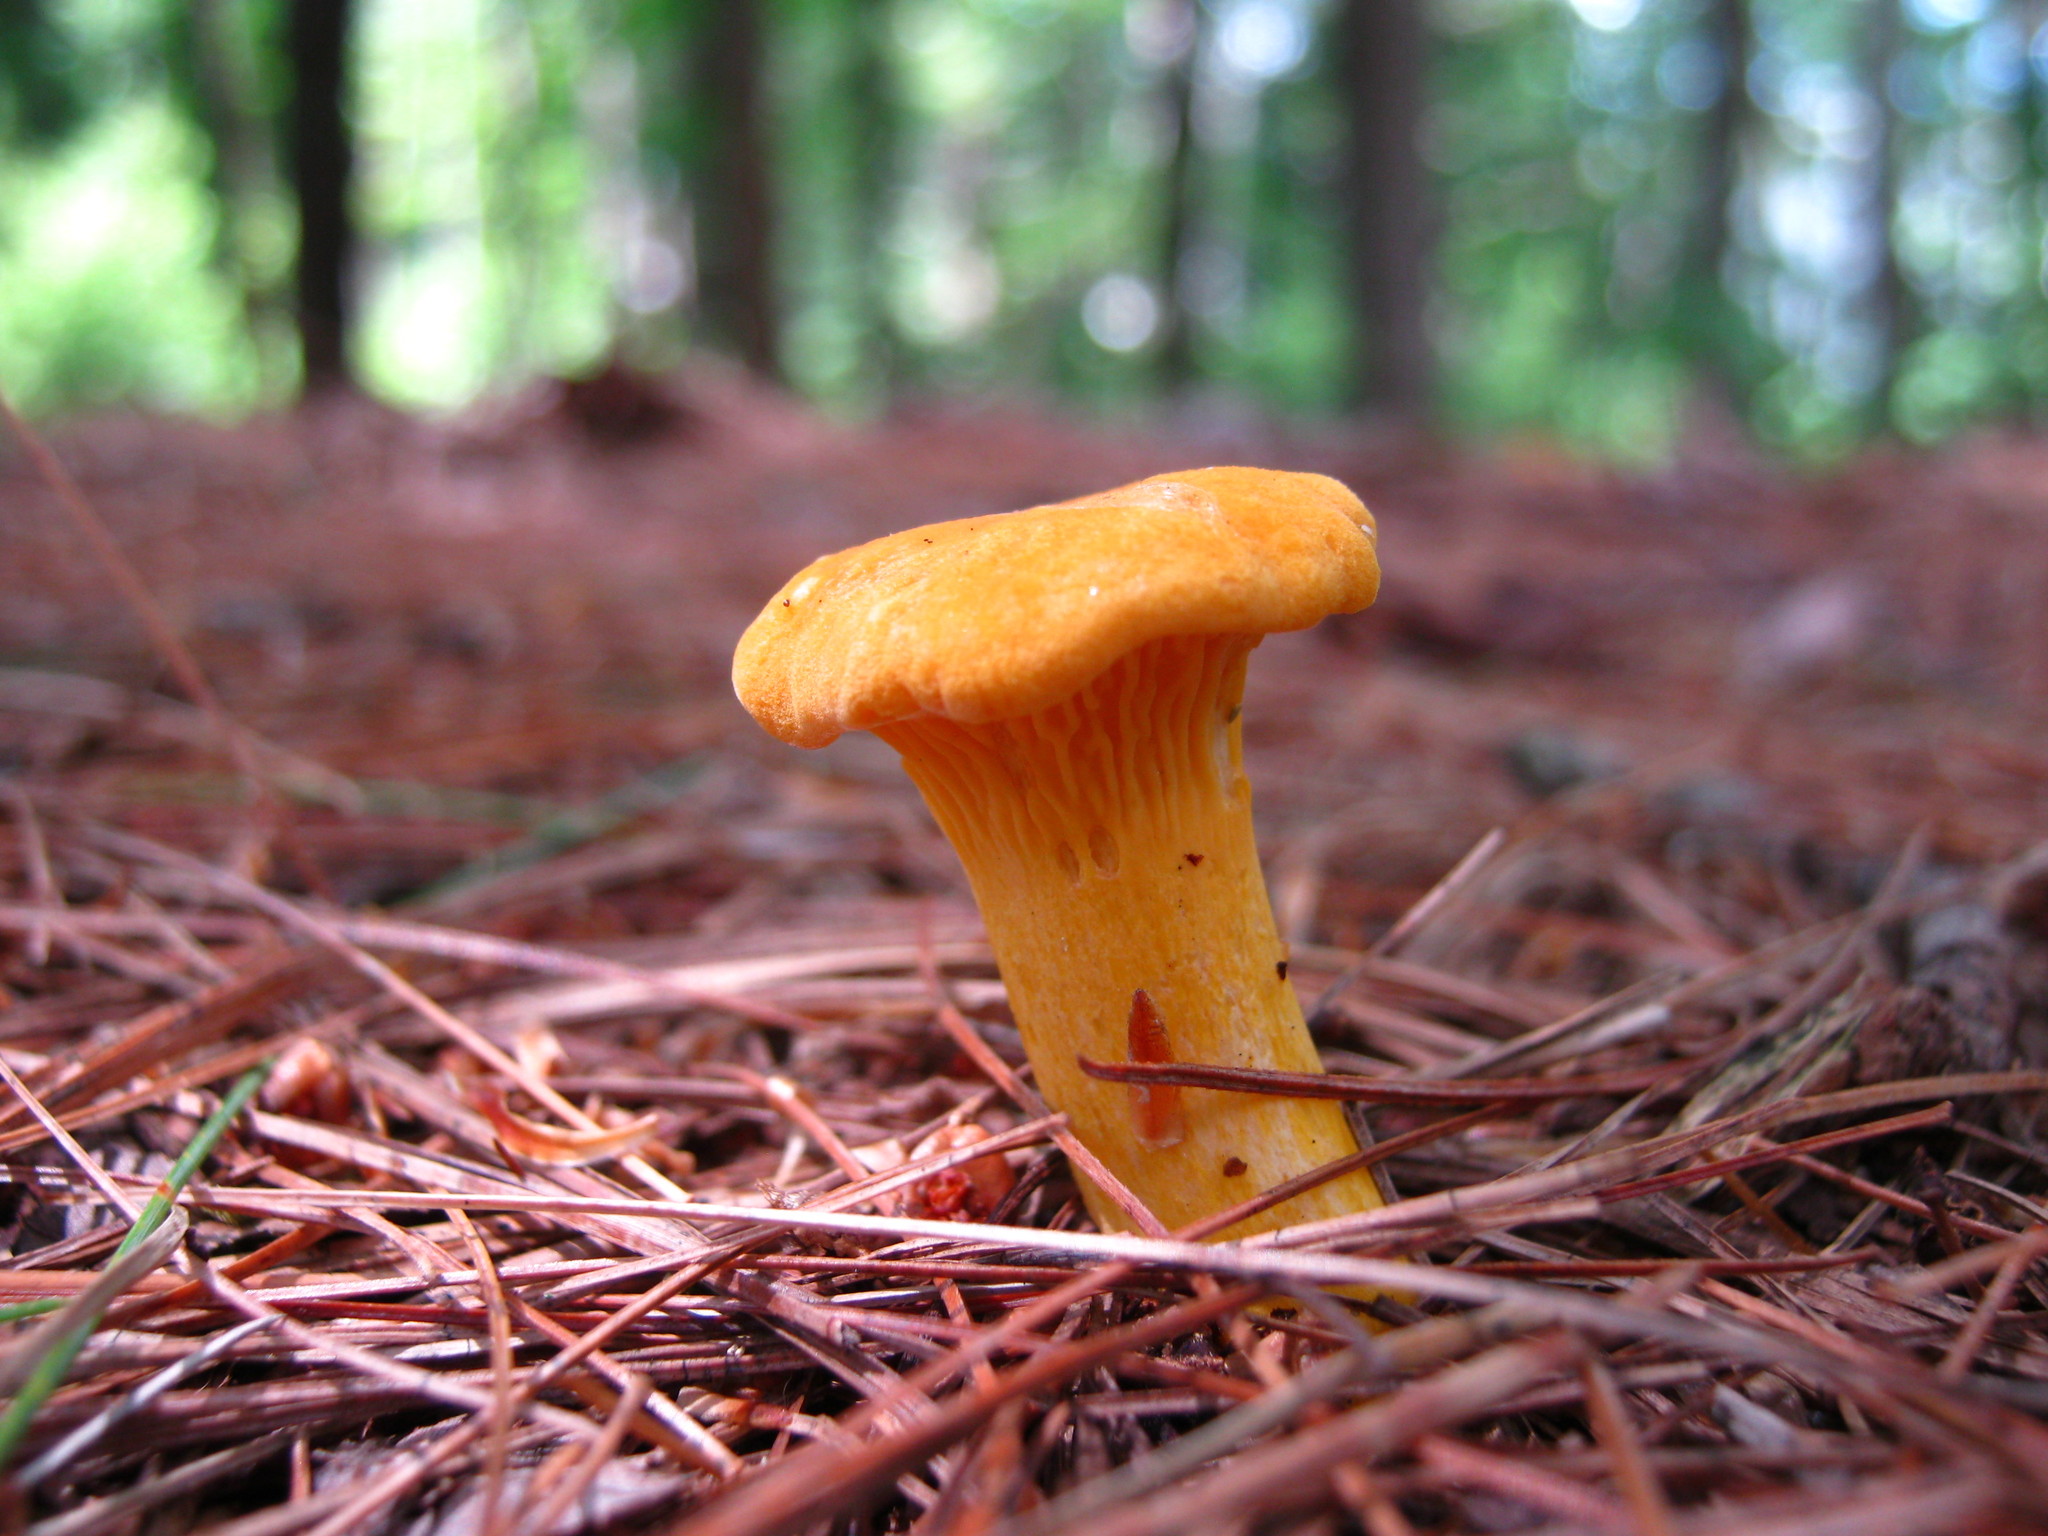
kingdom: Fungi
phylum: Basidiomycota
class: Agaricomycetes
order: Cantharellales
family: Hydnaceae
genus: Cantharellus
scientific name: Cantharellus enelensis
